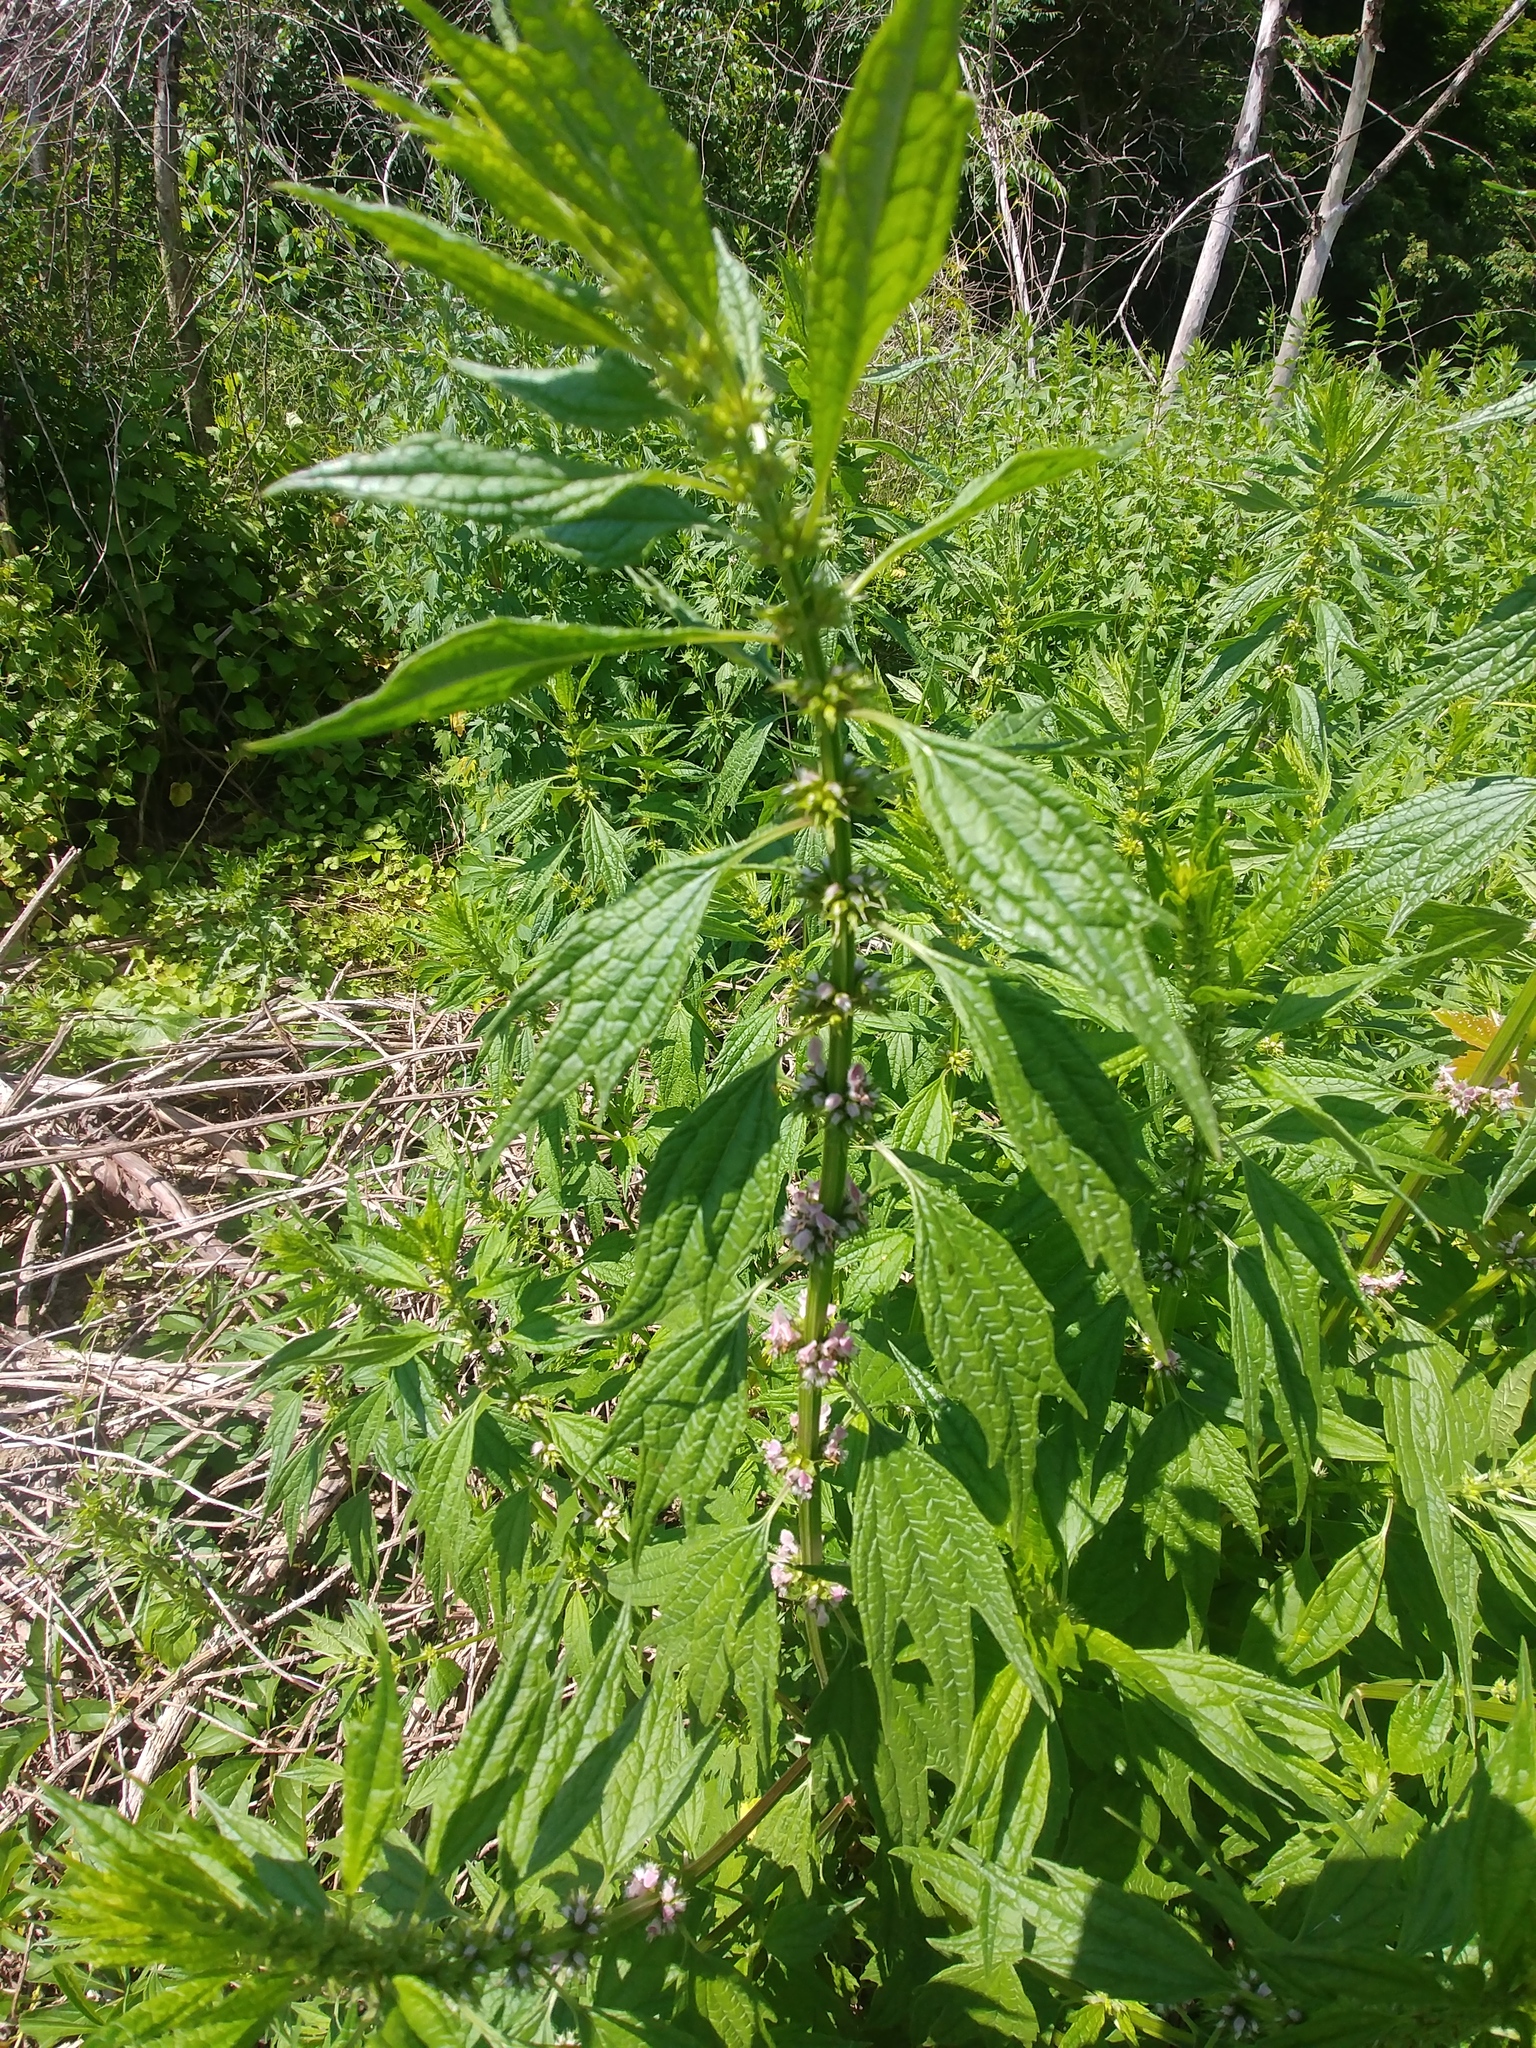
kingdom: Plantae
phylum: Tracheophyta
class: Magnoliopsida
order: Lamiales
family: Lamiaceae
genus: Leonurus
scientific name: Leonurus cardiaca
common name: Motherwort
